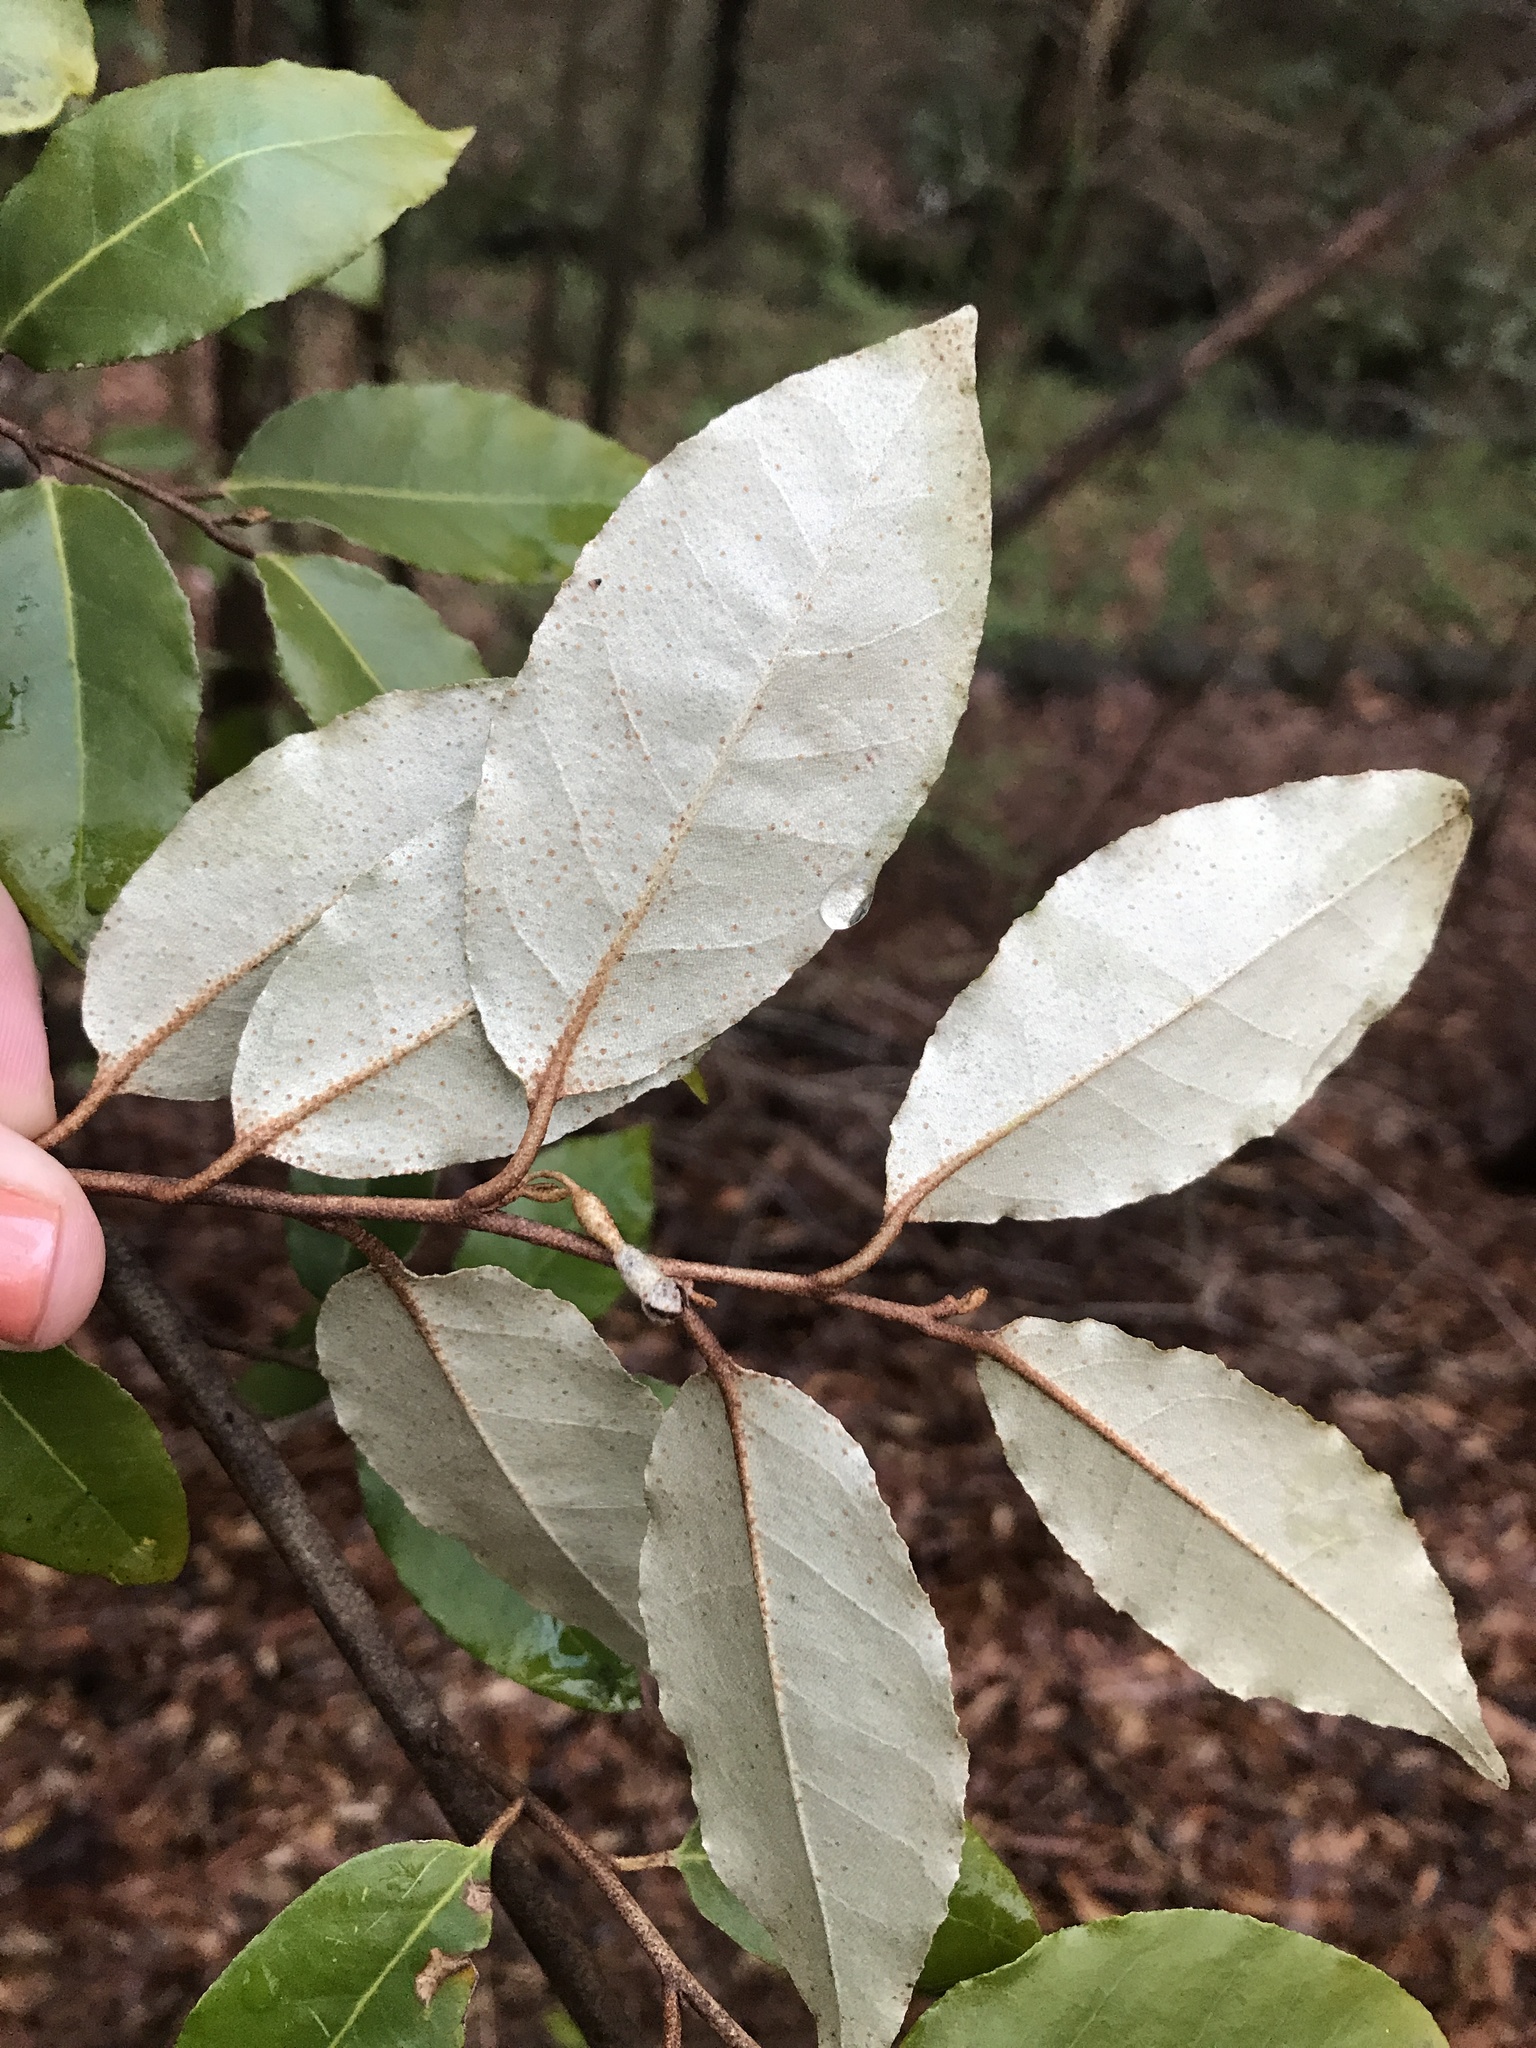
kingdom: Plantae
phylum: Tracheophyta
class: Magnoliopsida
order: Rosales
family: Elaeagnaceae
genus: Elaeagnus
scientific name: Elaeagnus pungens
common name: Spiny oleaster
